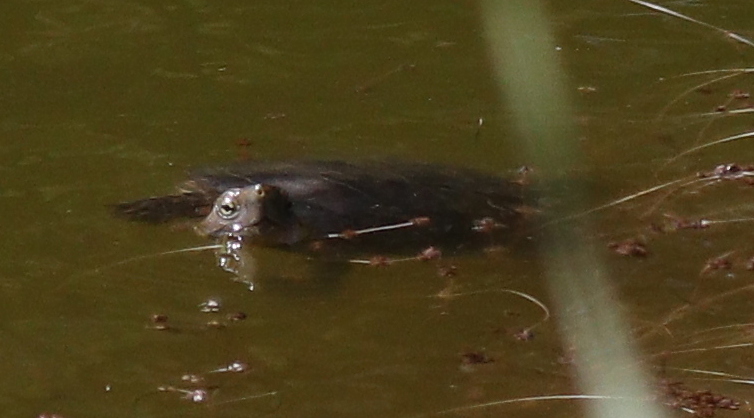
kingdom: Animalia
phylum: Chordata
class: Testudines
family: Geoemydidae
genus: Mauremys
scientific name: Mauremys leprosa
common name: Mediterranean pond turtle
